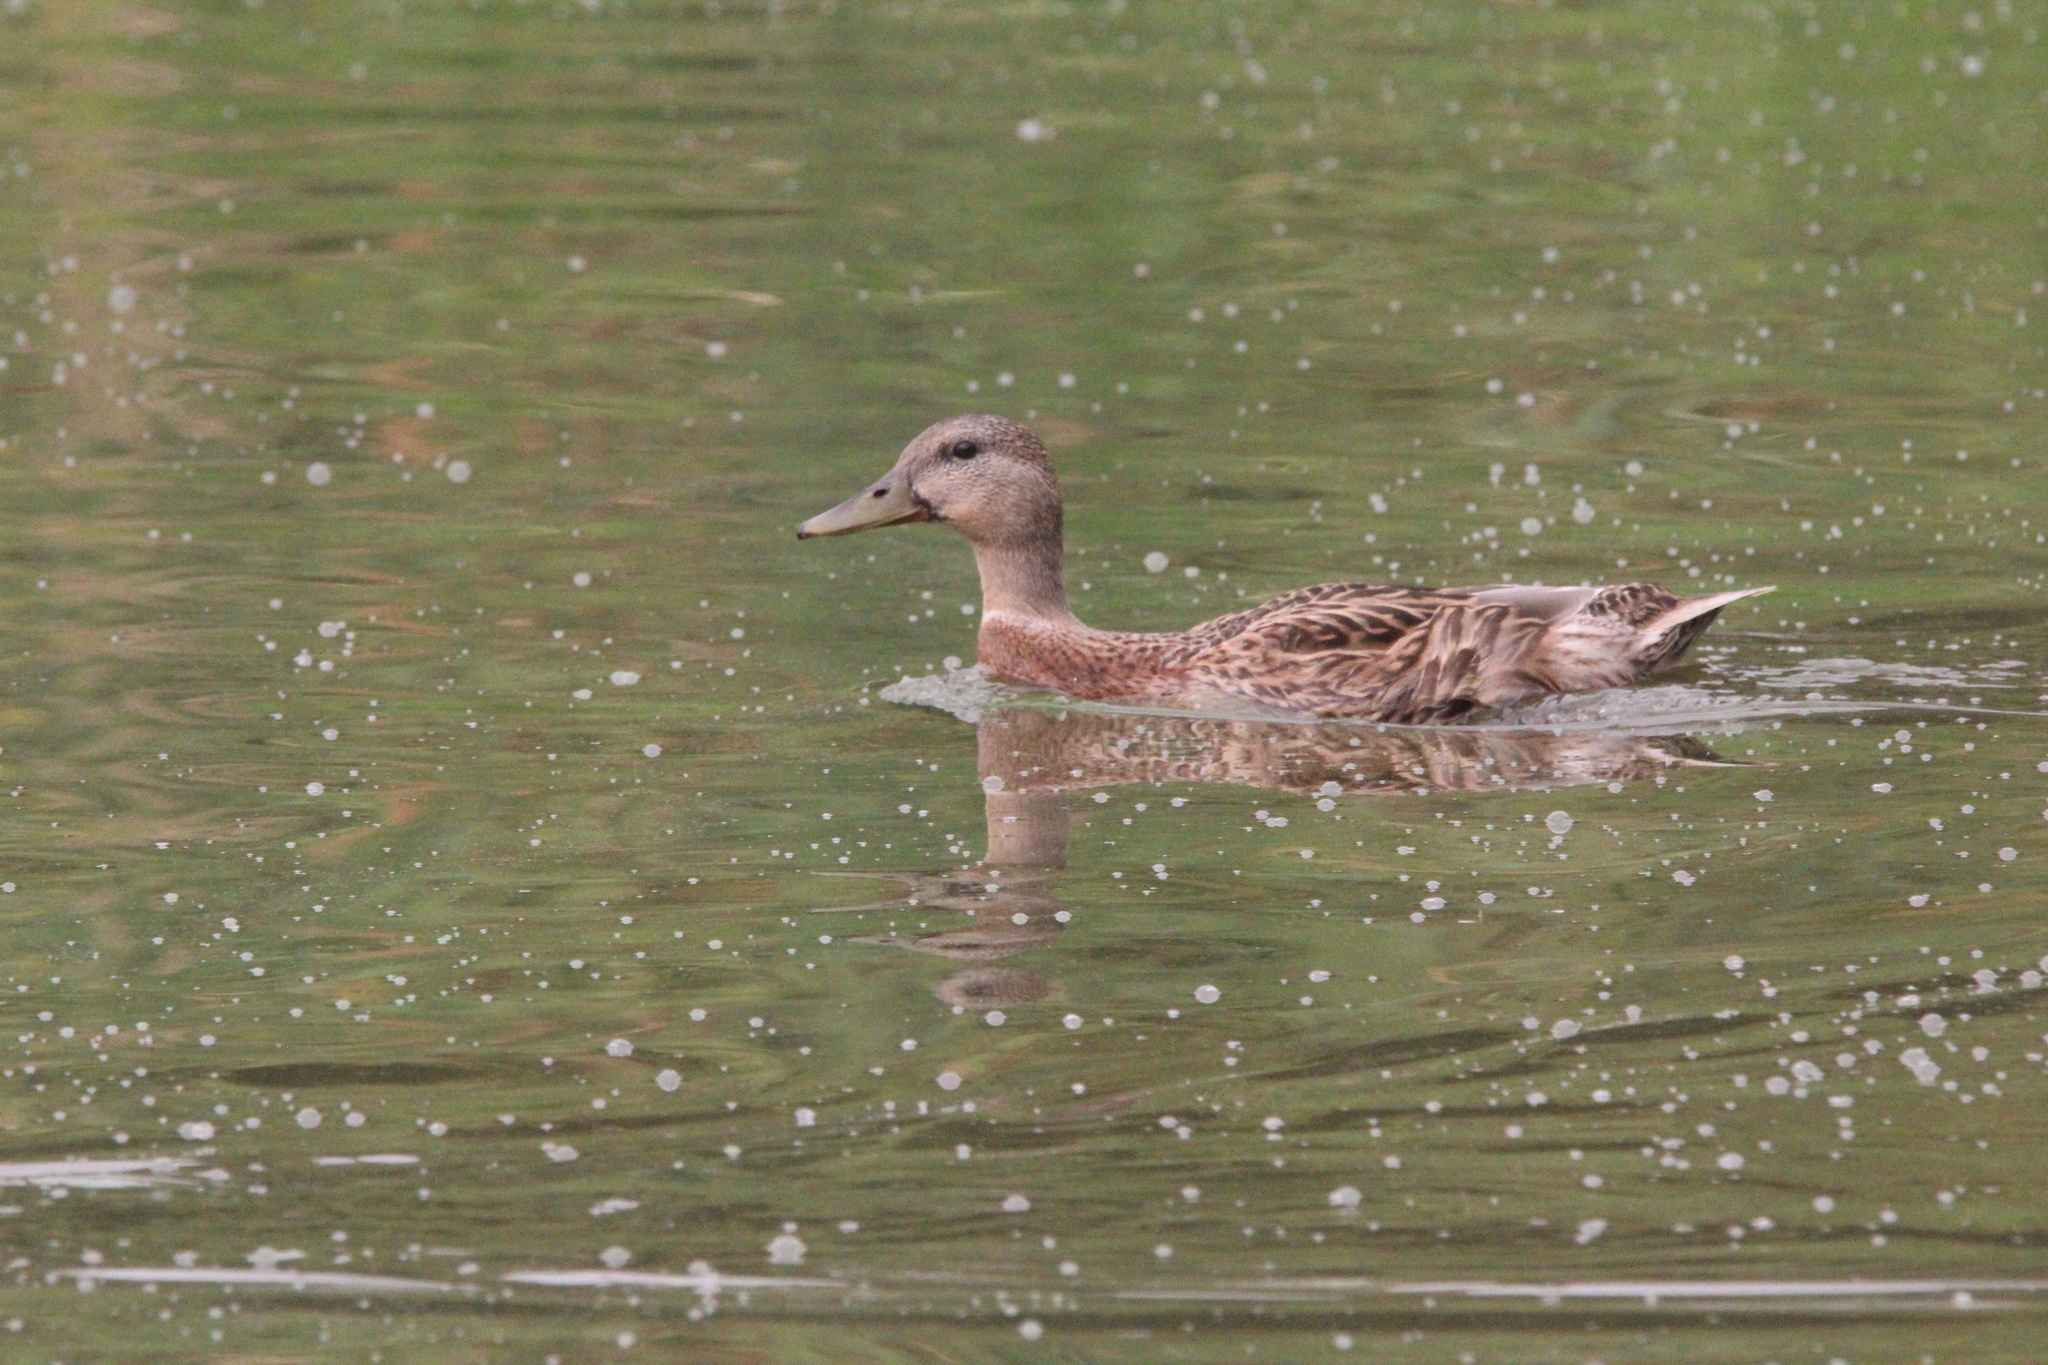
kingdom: Animalia
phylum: Chordata
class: Aves
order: Anseriformes
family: Anatidae
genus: Anas
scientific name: Anas platyrhynchos
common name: Mallard
